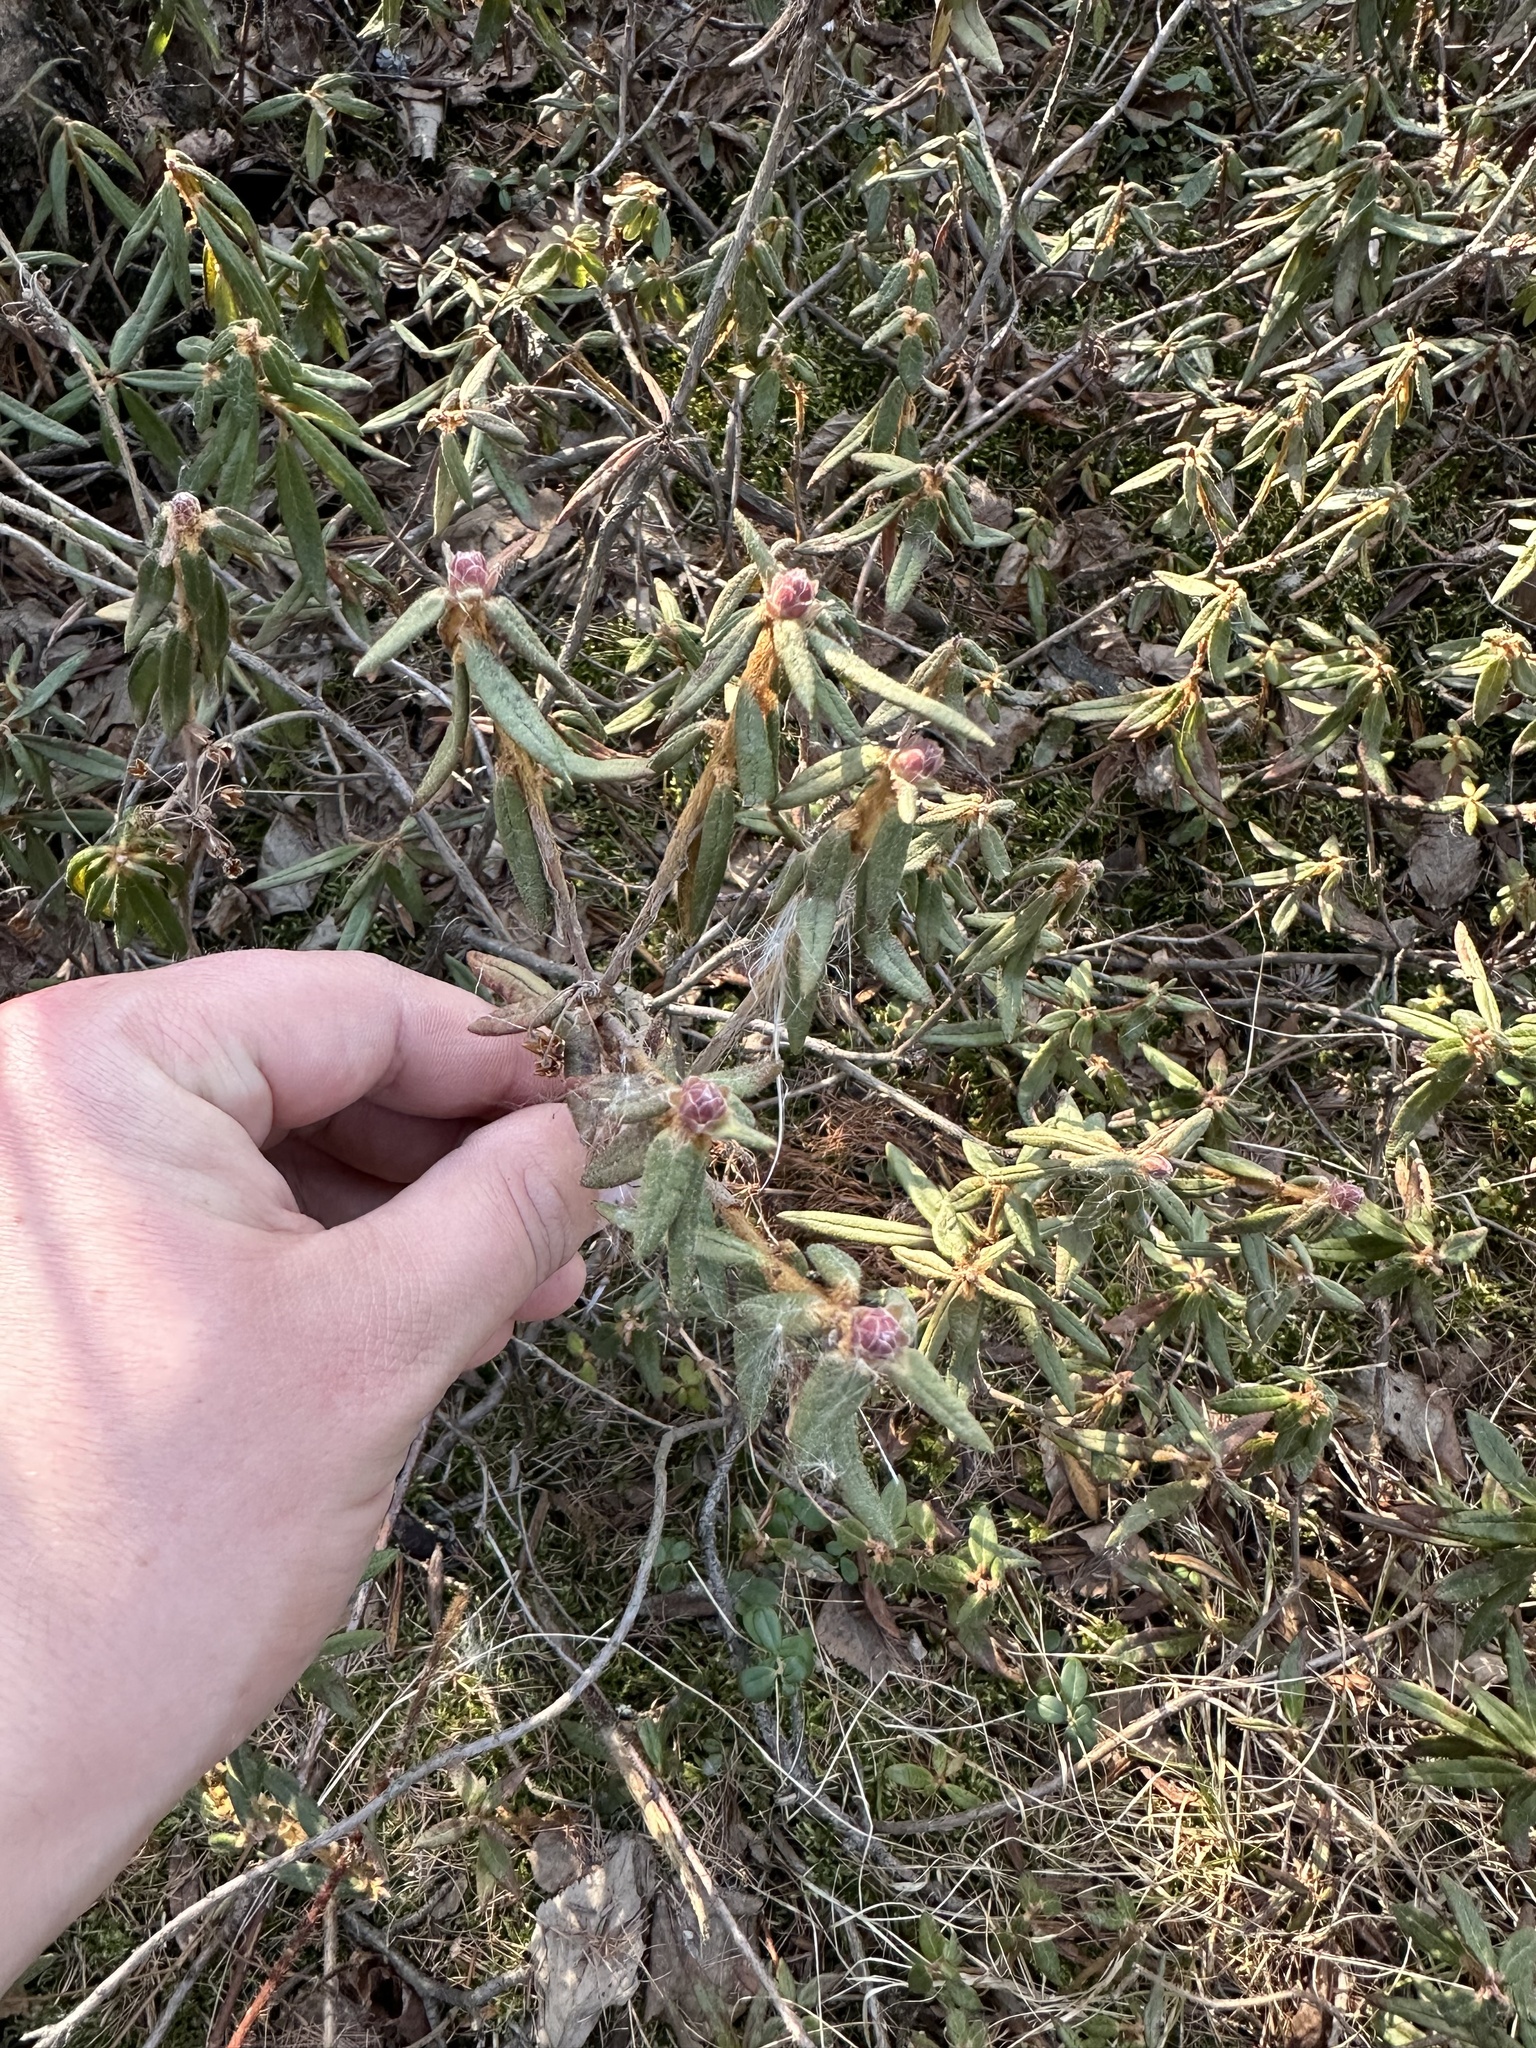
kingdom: Plantae
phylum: Tracheophyta
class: Magnoliopsida
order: Ericales
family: Ericaceae
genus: Rhododendron
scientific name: Rhododendron groenlandicum
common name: Bog labrador tea
